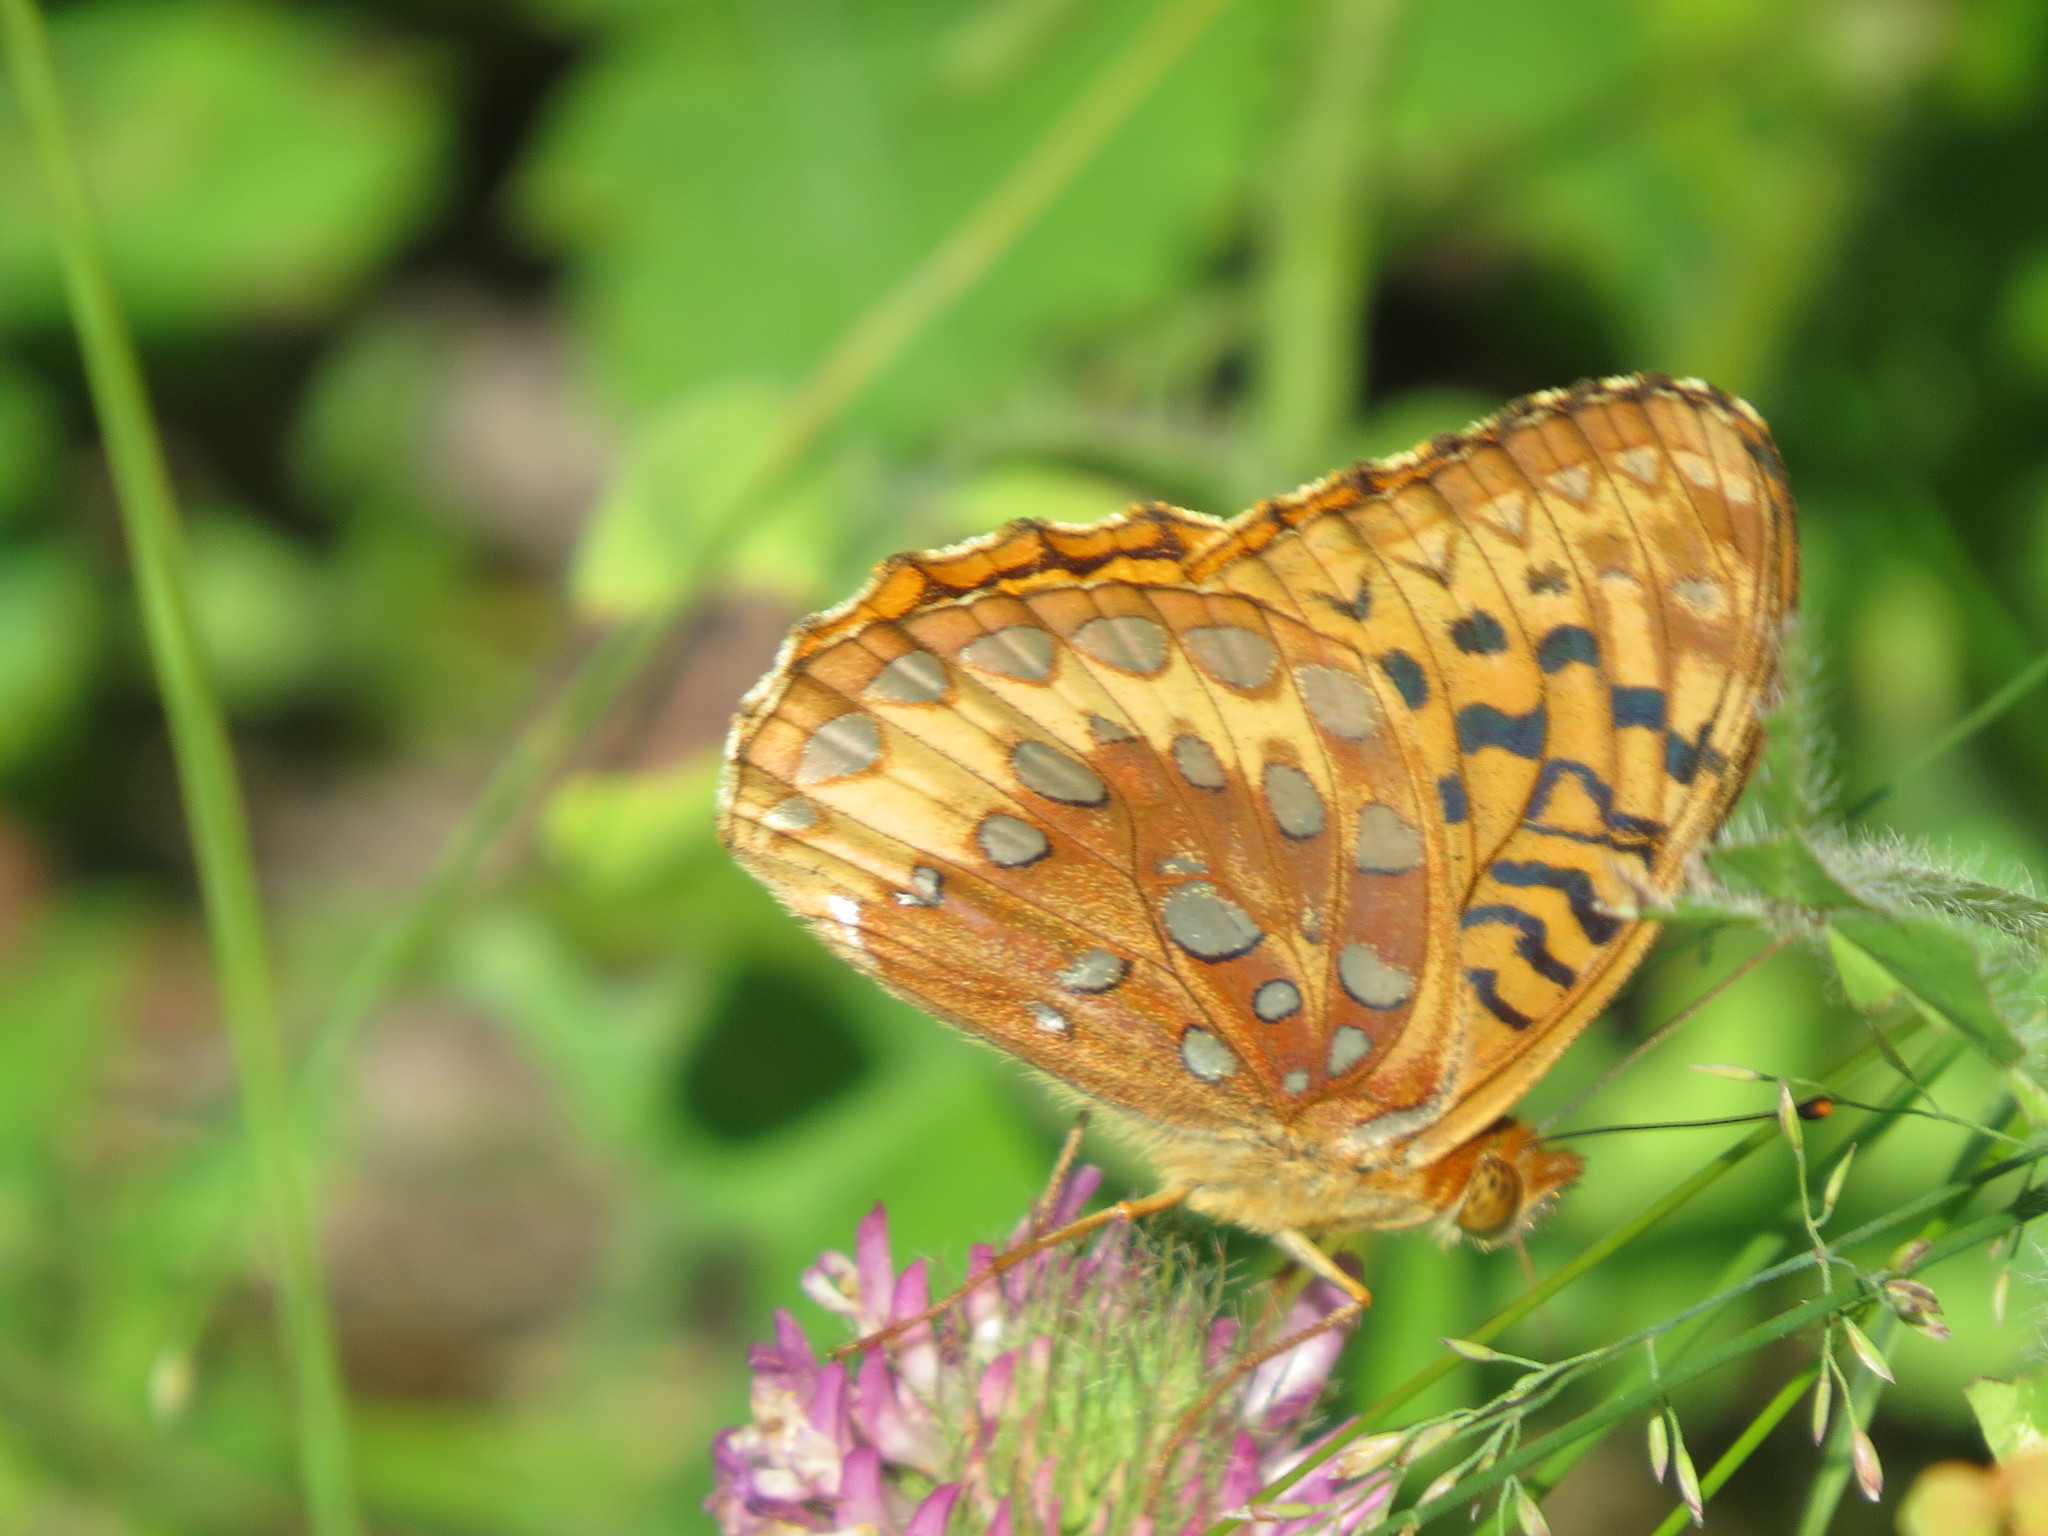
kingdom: Animalia
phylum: Arthropoda
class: Insecta
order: Lepidoptera
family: Nymphalidae
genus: Speyeria
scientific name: Speyeria cybele
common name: Great spangled fritillary
